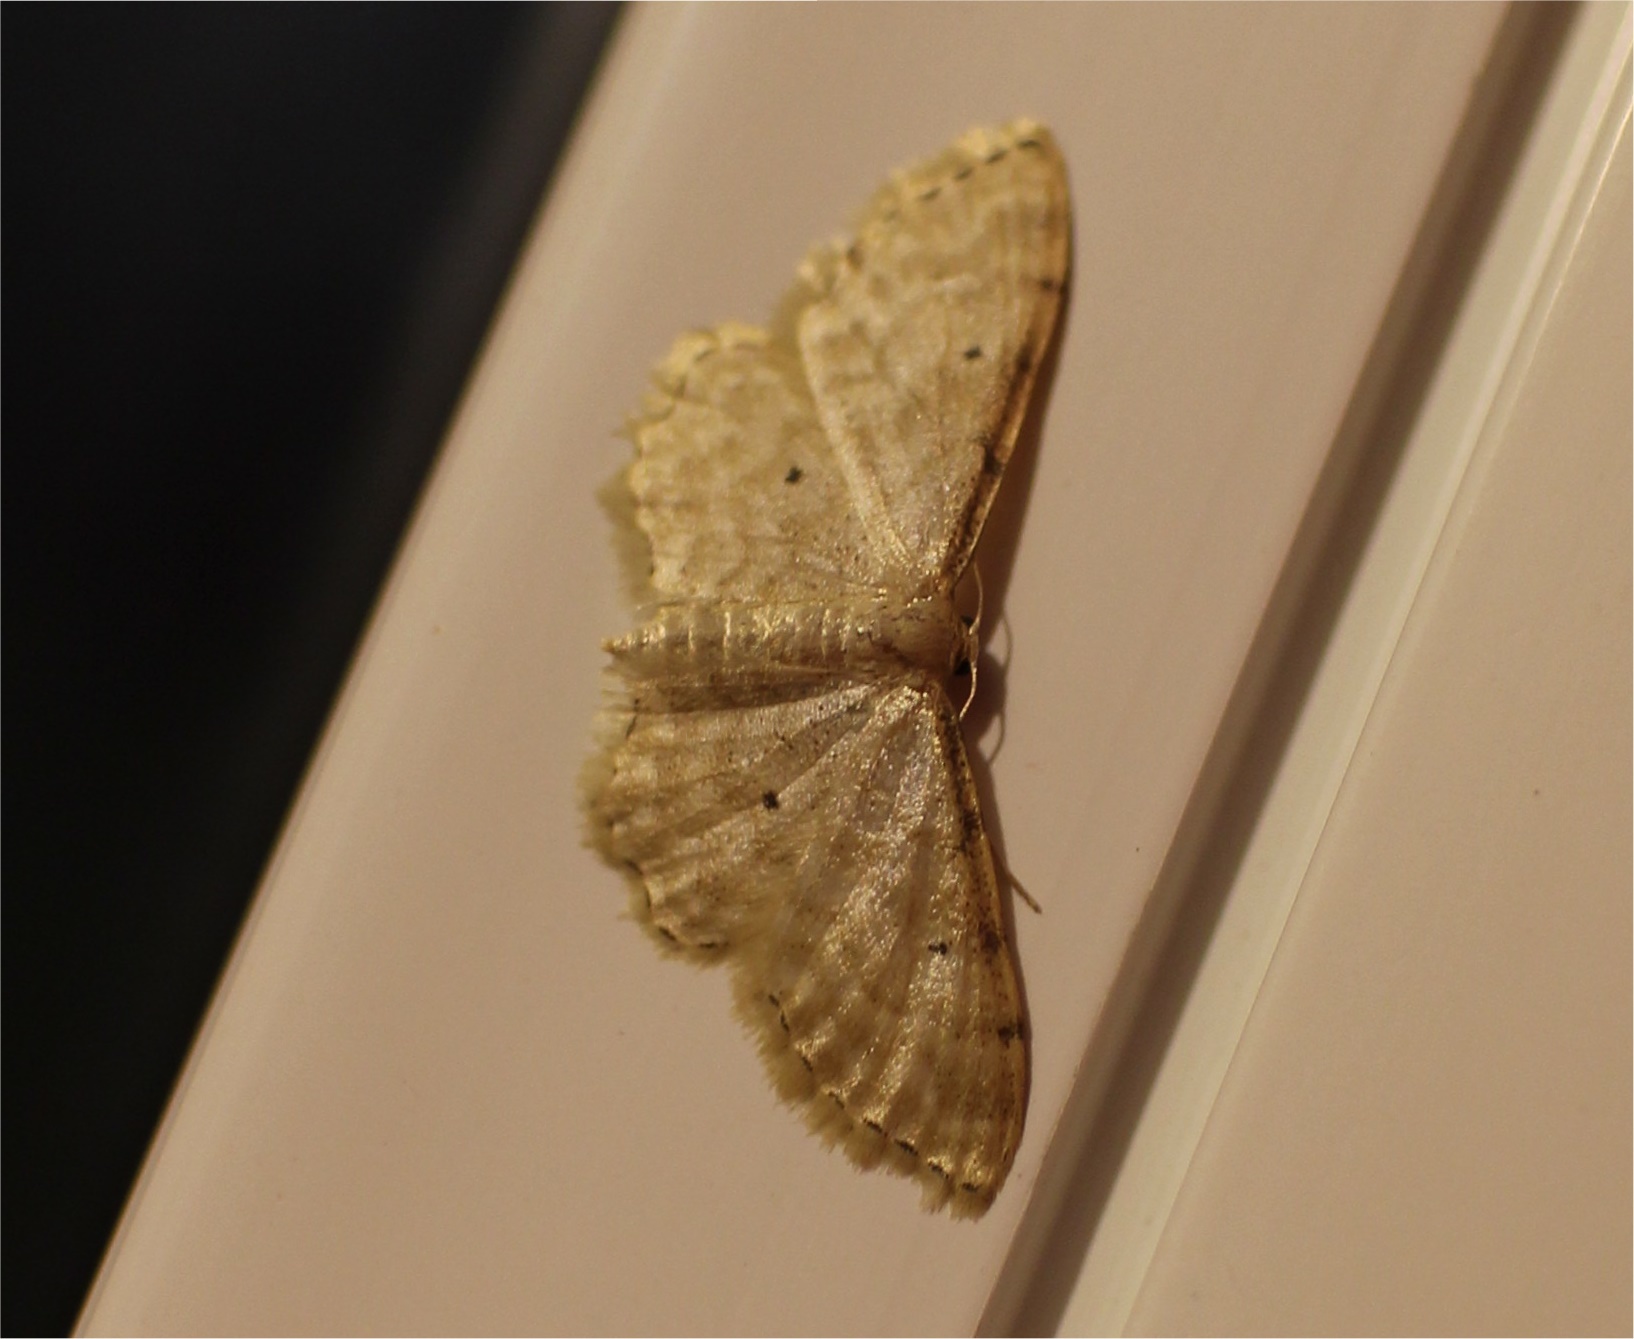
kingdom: Animalia
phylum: Arthropoda
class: Insecta
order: Lepidoptera
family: Geometridae
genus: Idaea
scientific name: Idaea fuscovenosa
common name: Dwarf cream wave
